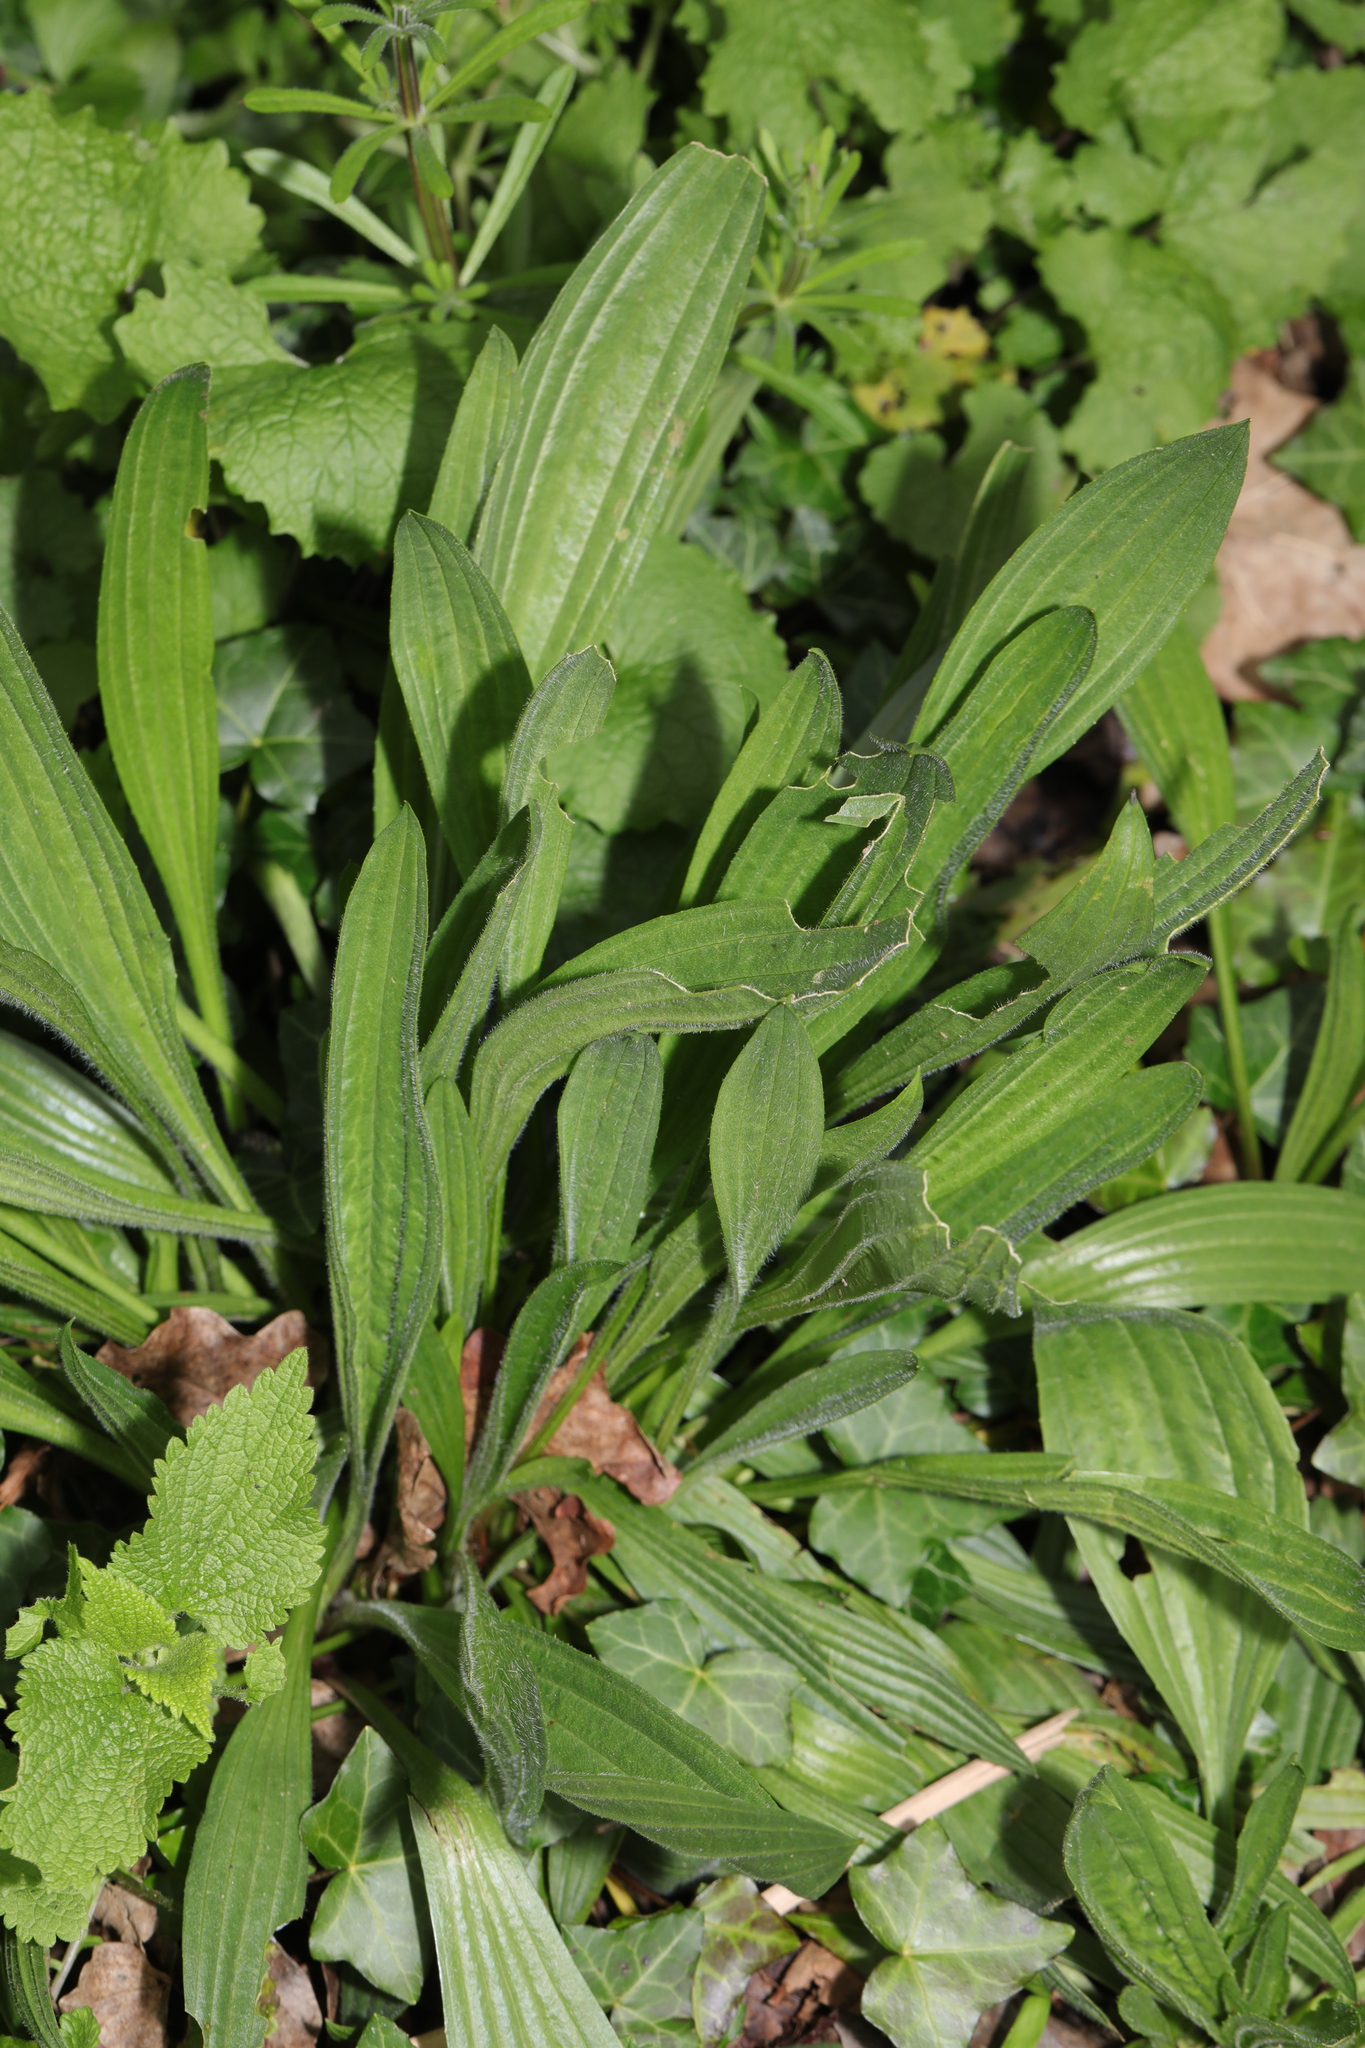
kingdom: Plantae
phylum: Tracheophyta
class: Magnoliopsida
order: Lamiales
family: Plantaginaceae
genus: Plantago
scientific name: Plantago lanceolata
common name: Ribwort plantain
